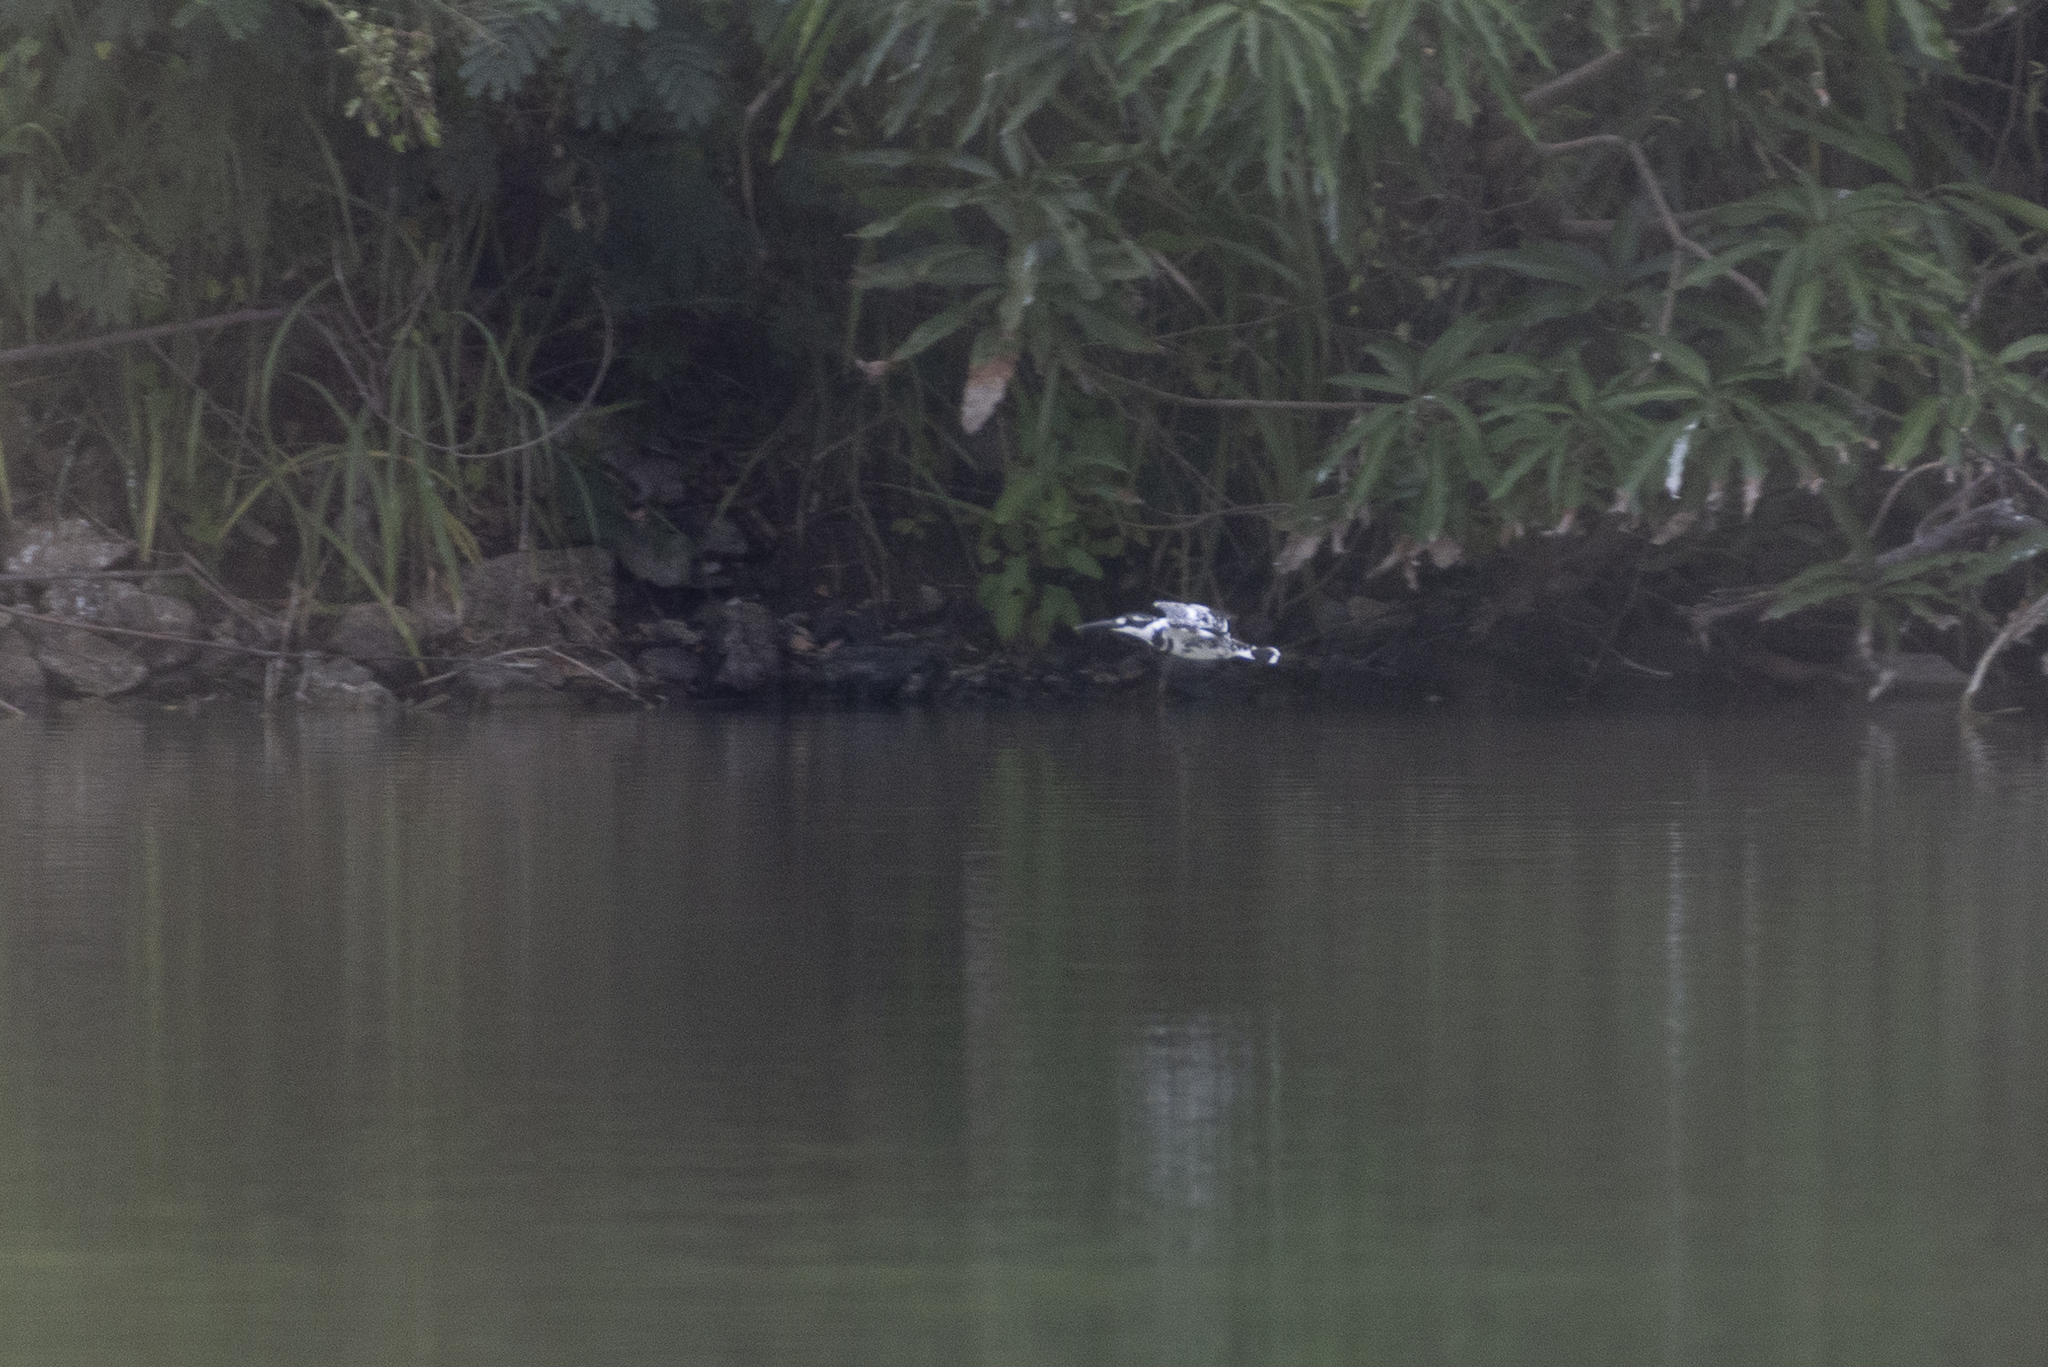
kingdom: Animalia
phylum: Chordata
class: Aves
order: Coraciiformes
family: Alcedinidae
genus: Ceryle
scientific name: Ceryle rudis
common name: Pied kingfisher
